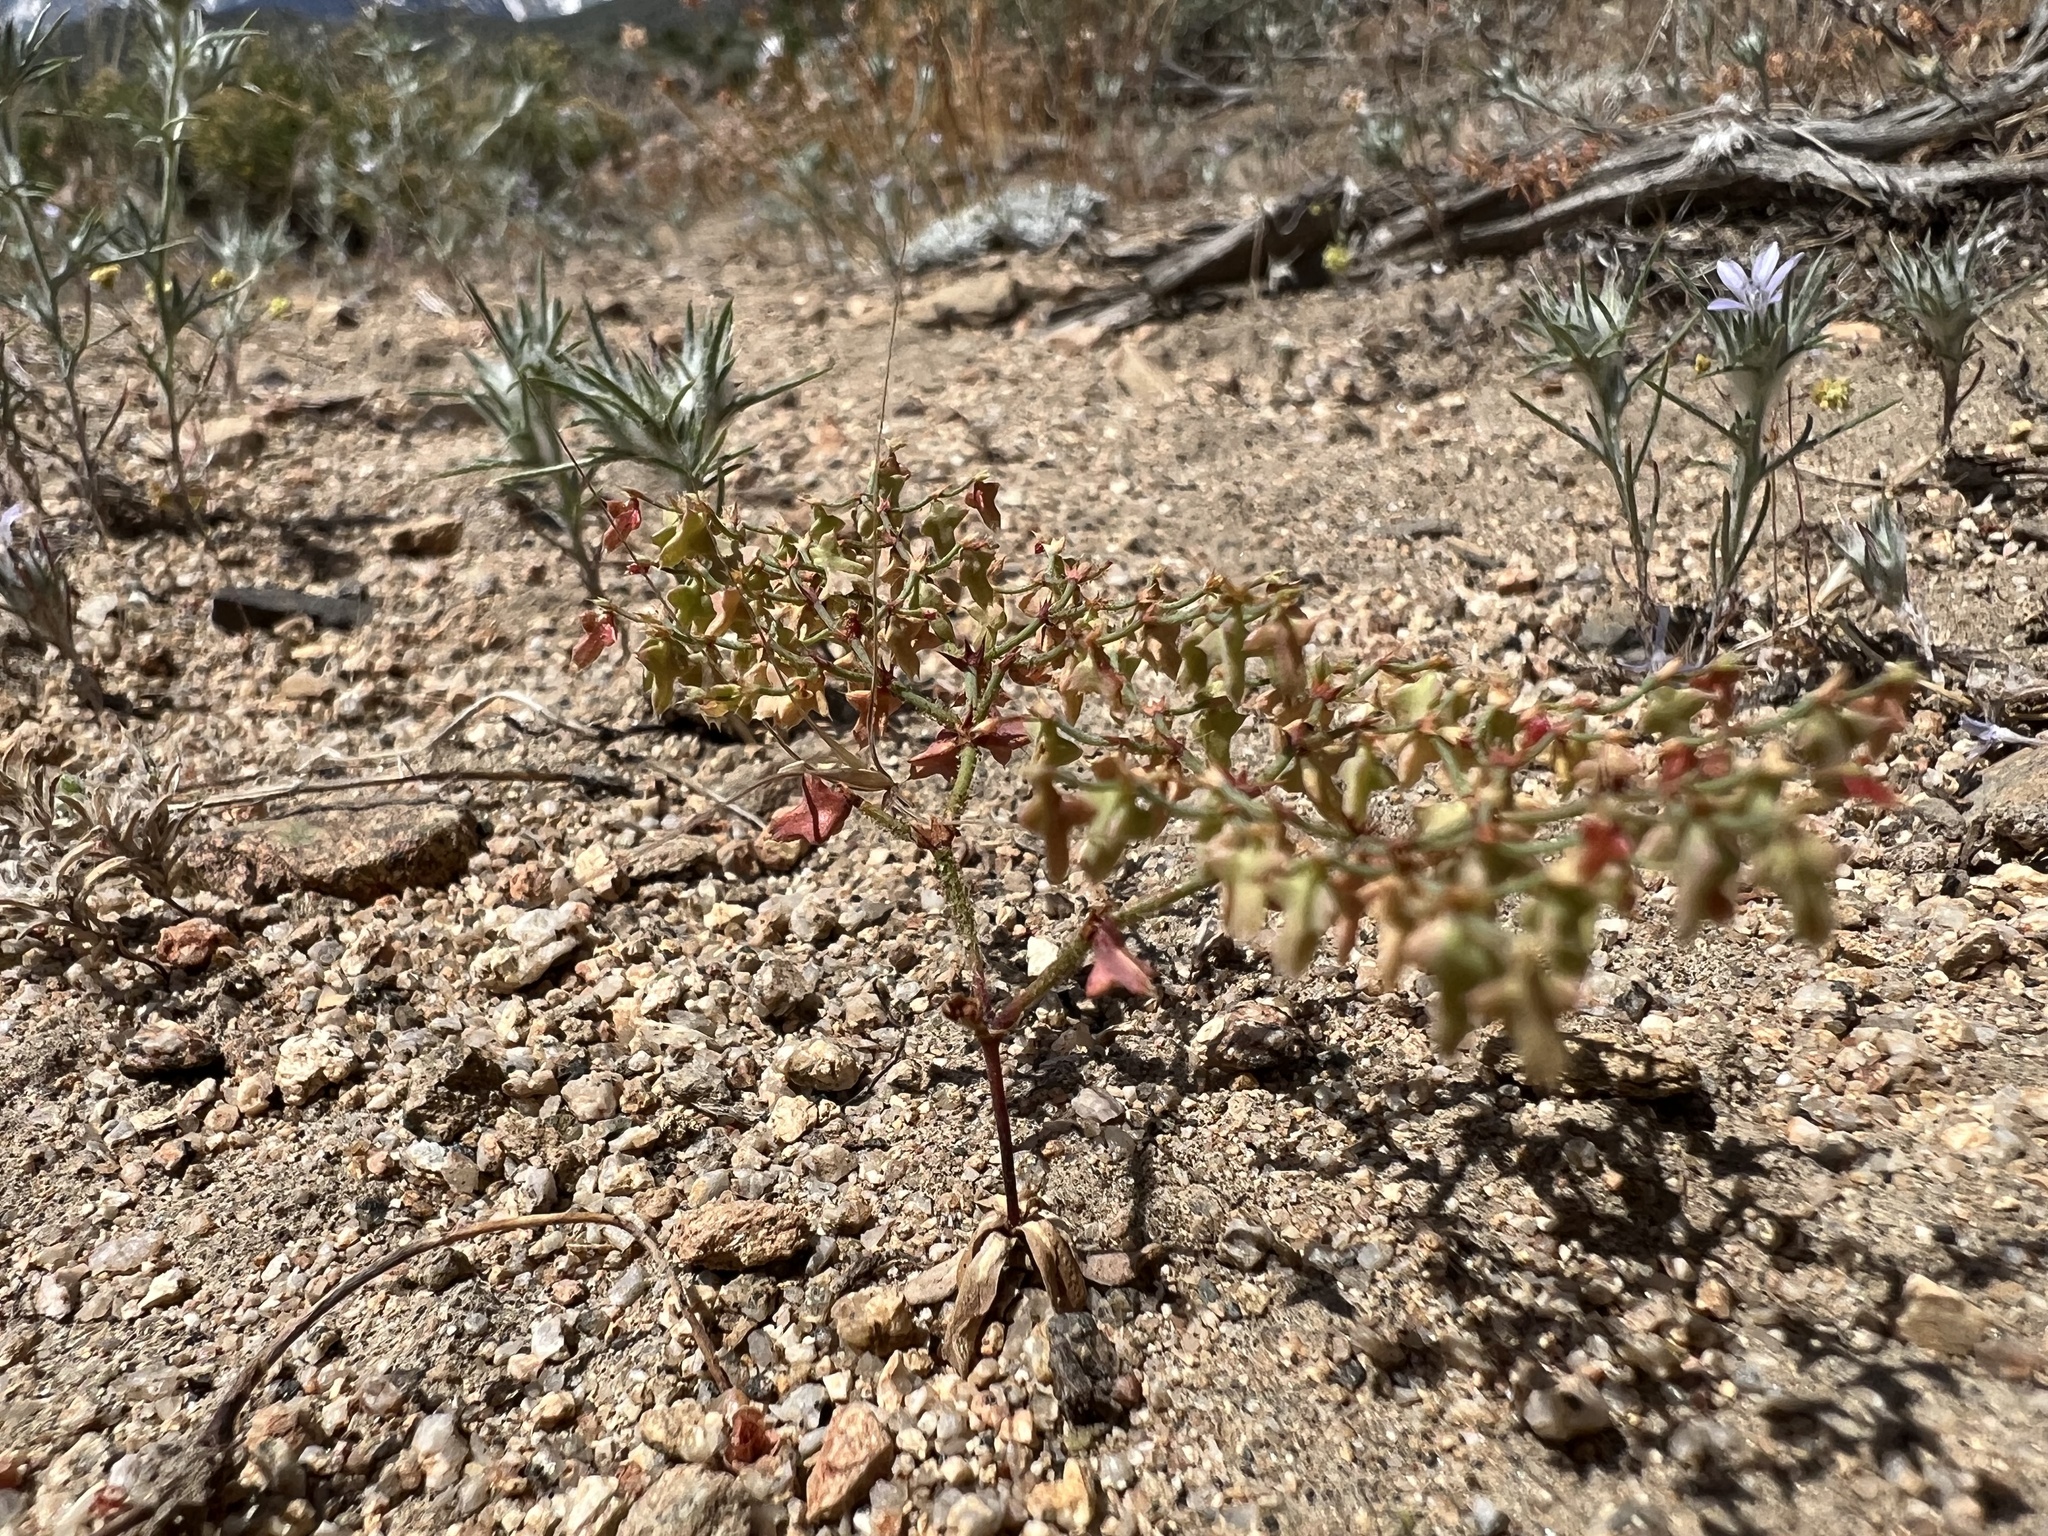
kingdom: Plantae
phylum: Tracheophyta
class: Magnoliopsida
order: Caryophyllales
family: Polygonaceae
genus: Centrostegia
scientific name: Centrostegia thurberi
